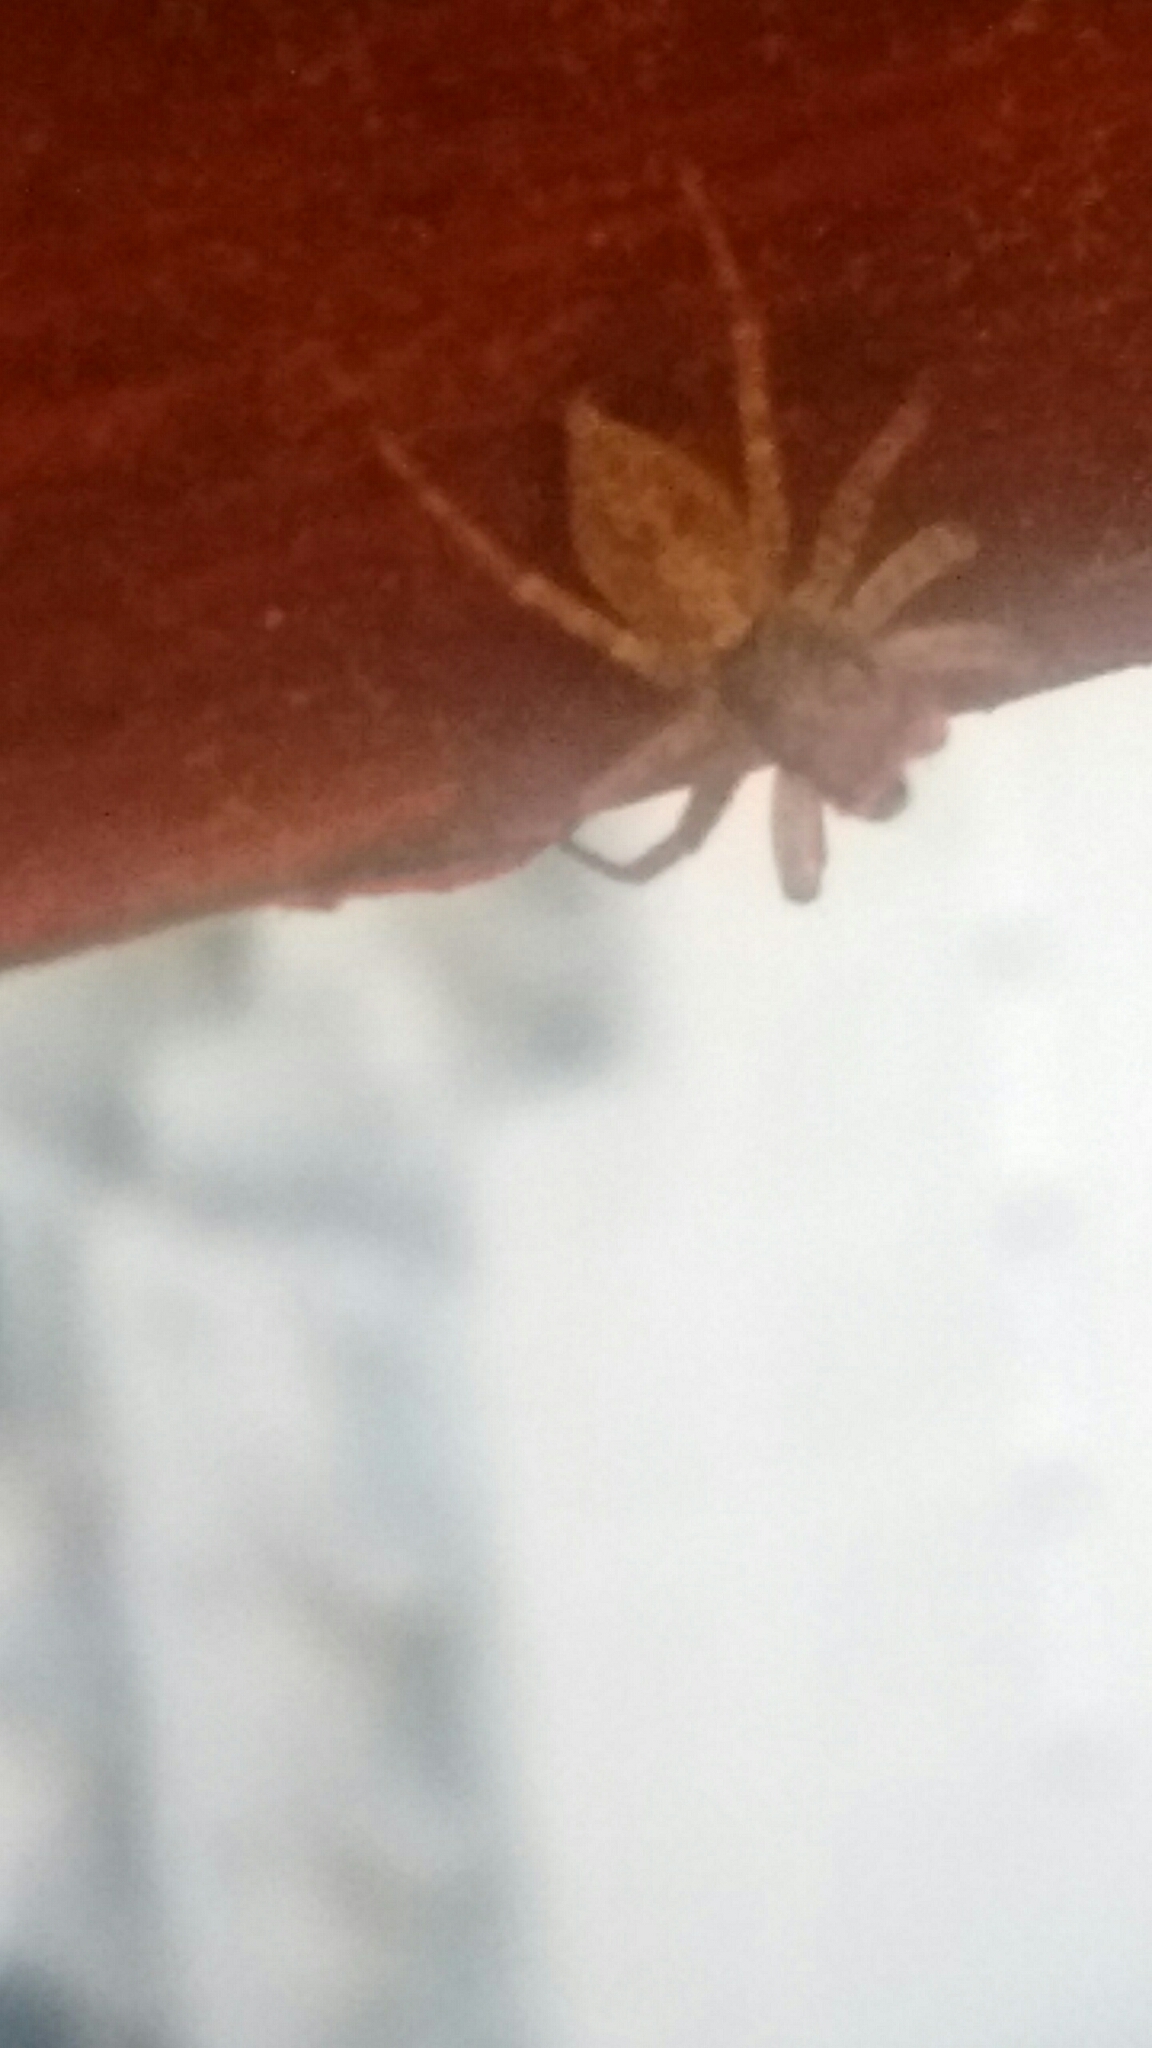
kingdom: Animalia
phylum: Arthropoda
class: Arachnida
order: Araneae
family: Salticidae
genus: Saitis
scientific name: Saitis variegatus
